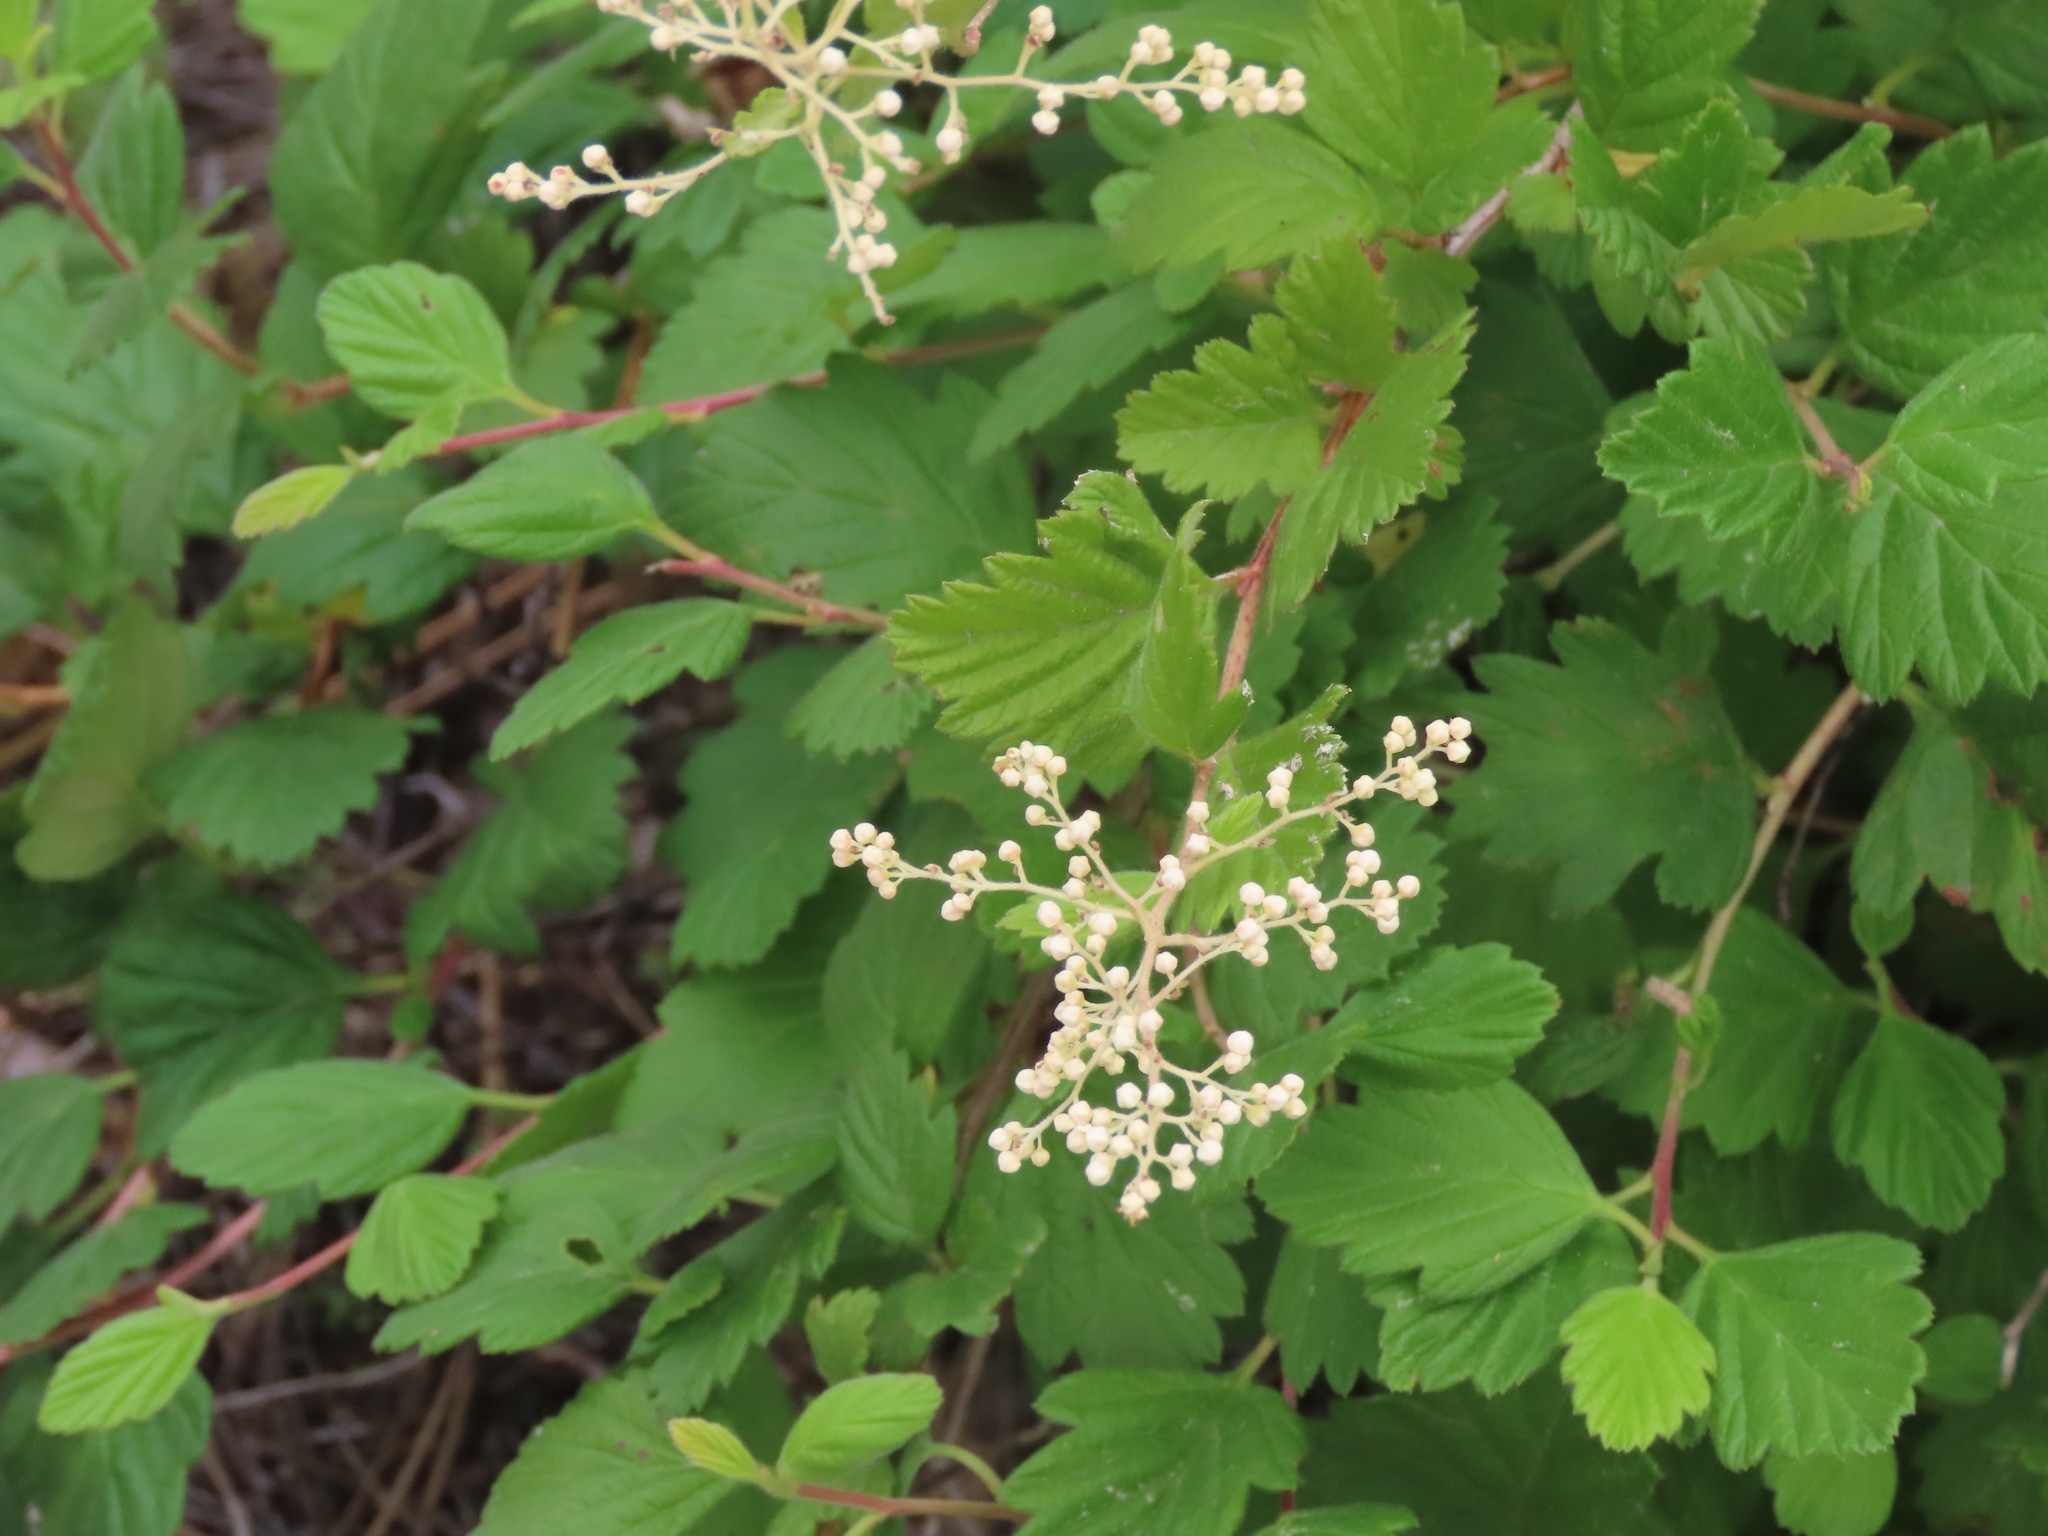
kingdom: Plantae
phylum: Tracheophyta
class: Magnoliopsida
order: Rosales
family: Rosaceae
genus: Holodiscus
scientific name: Holodiscus discolor
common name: Oceanspray
